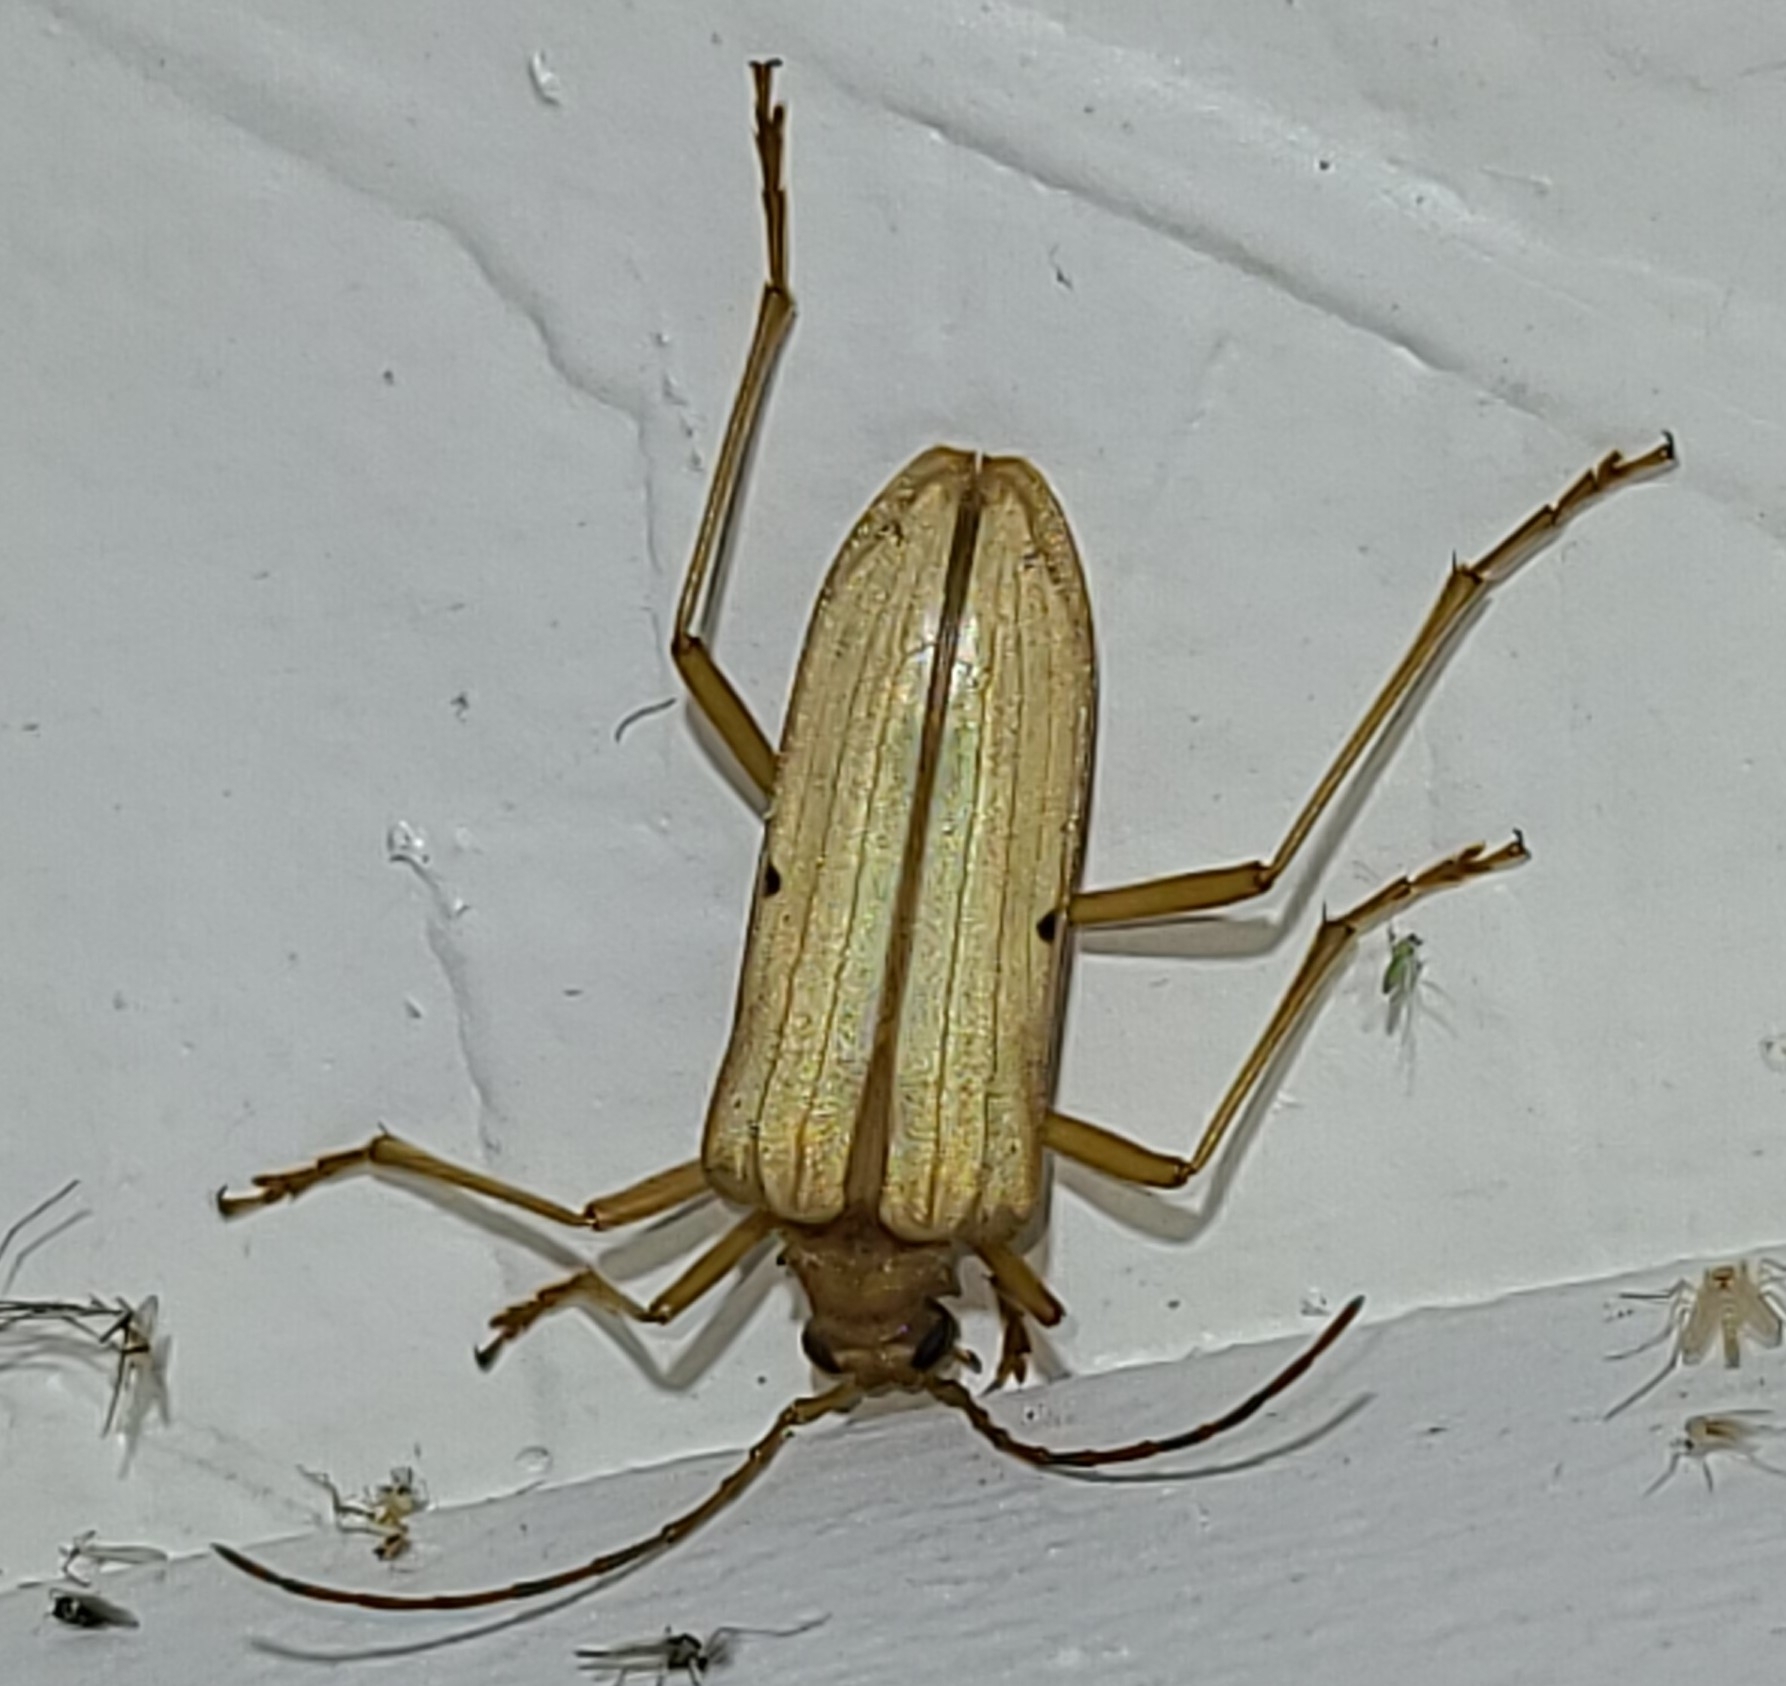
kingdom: Animalia
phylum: Arthropoda
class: Insecta
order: Coleoptera
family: Cerambycidae
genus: Centrodera
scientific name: Centrodera spurca
